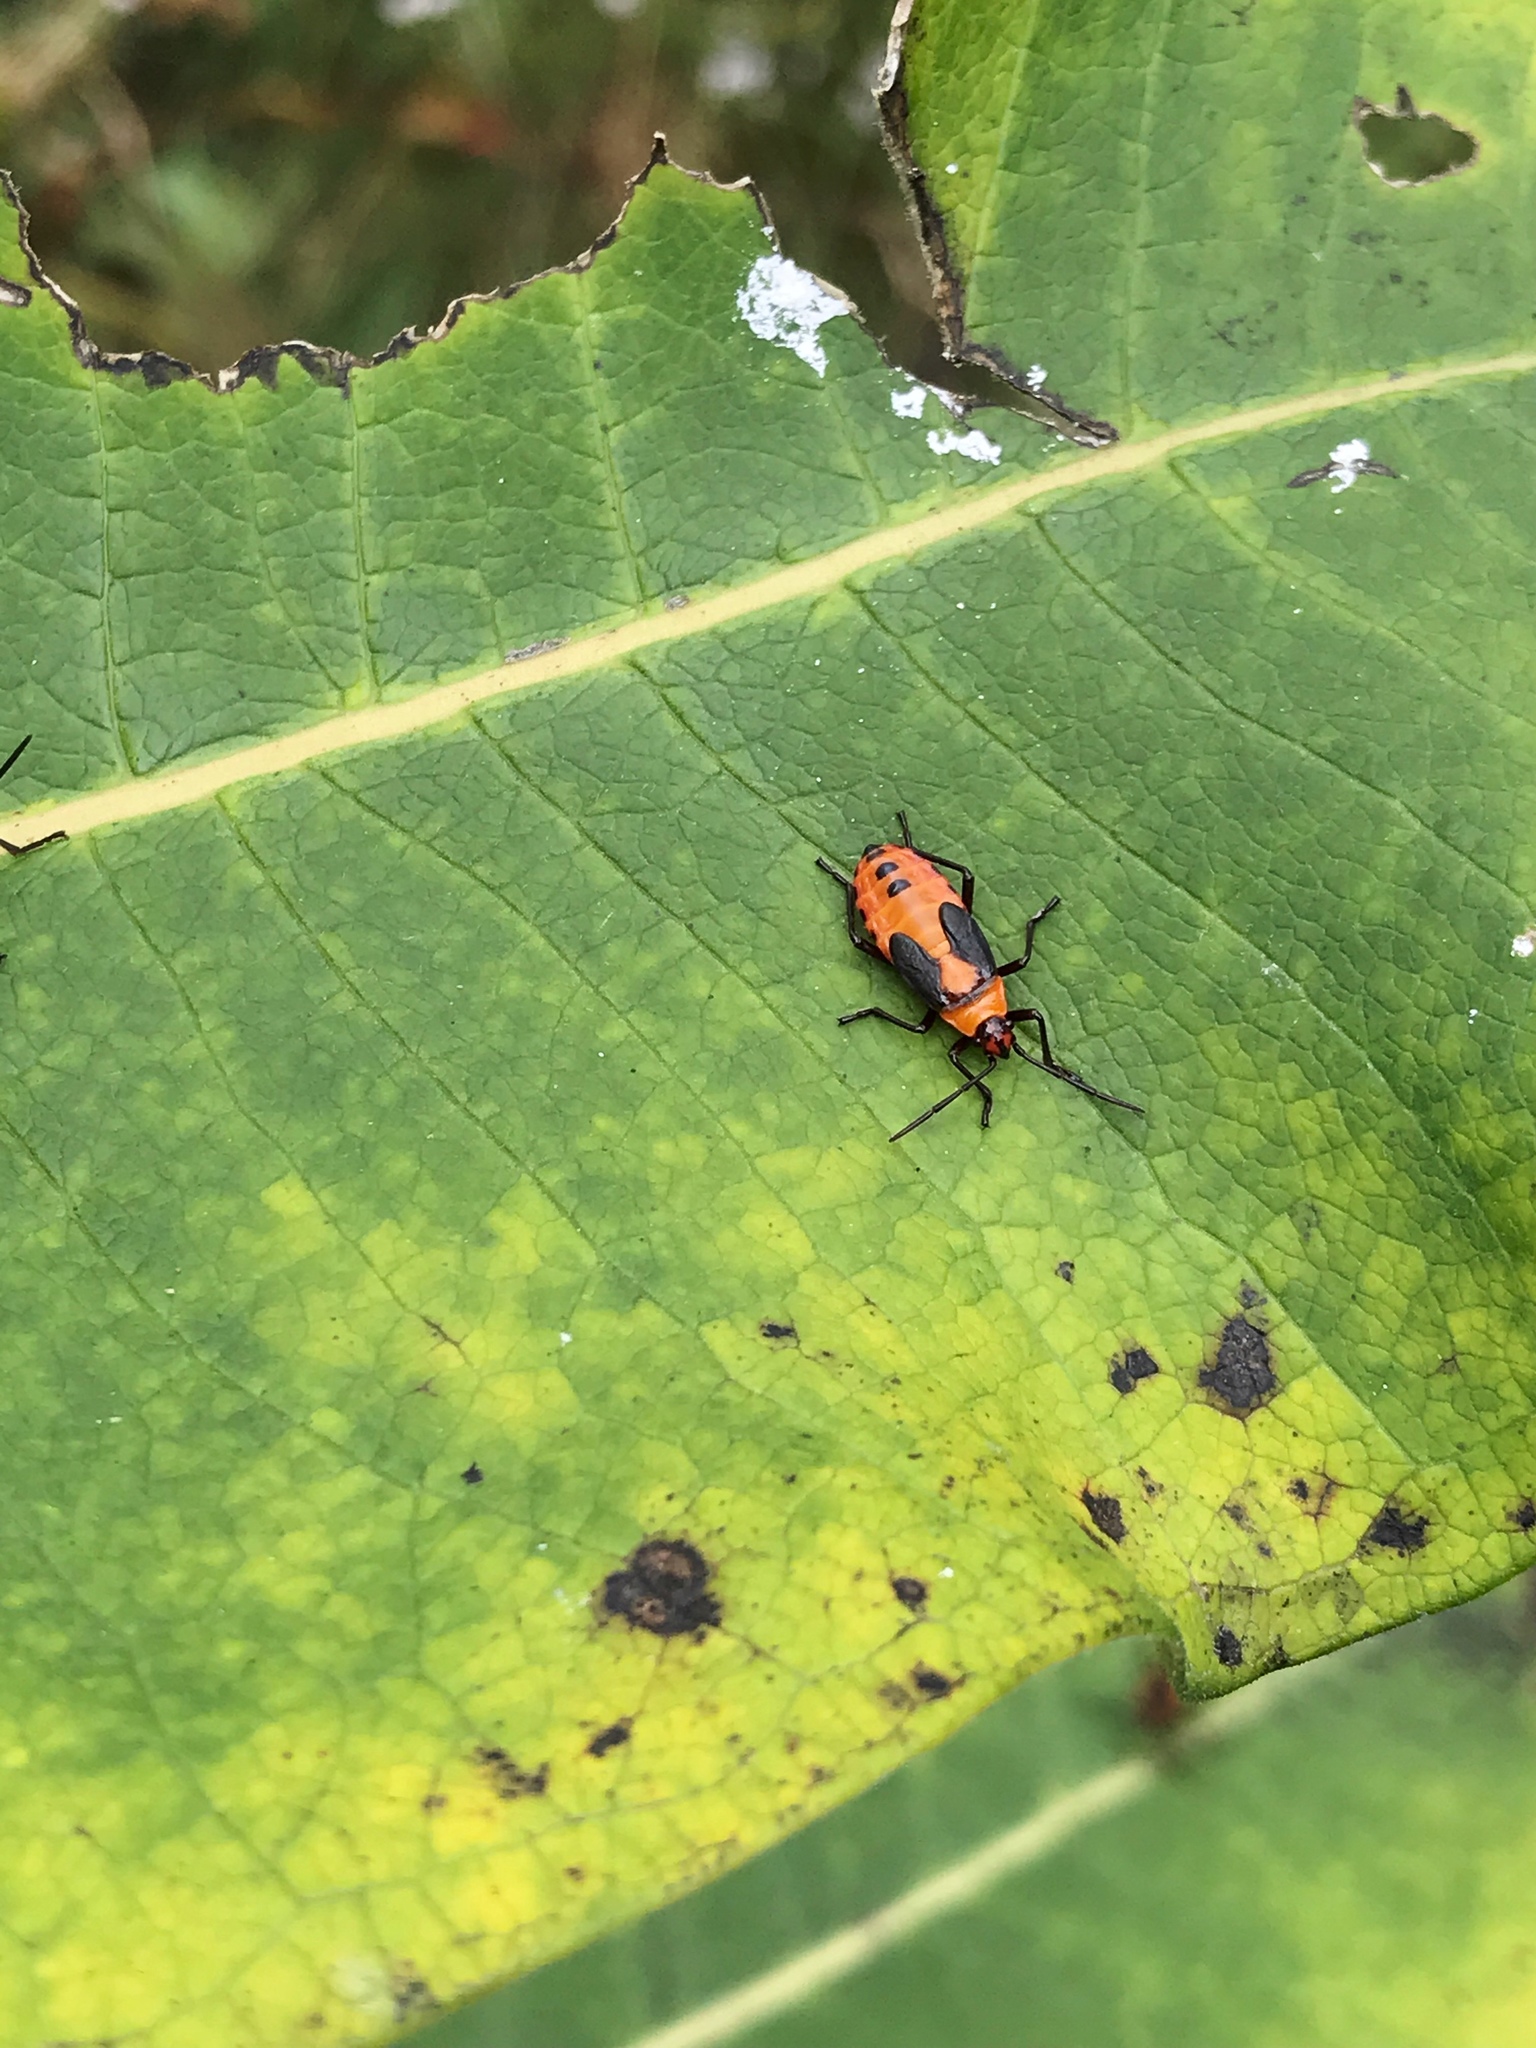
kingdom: Animalia
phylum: Arthropoda
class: Insecta
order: Hemiptera
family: Lygaeidae
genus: Oncopeltus
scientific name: Oncopeltus fasciatus
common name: Large milkweed bug
